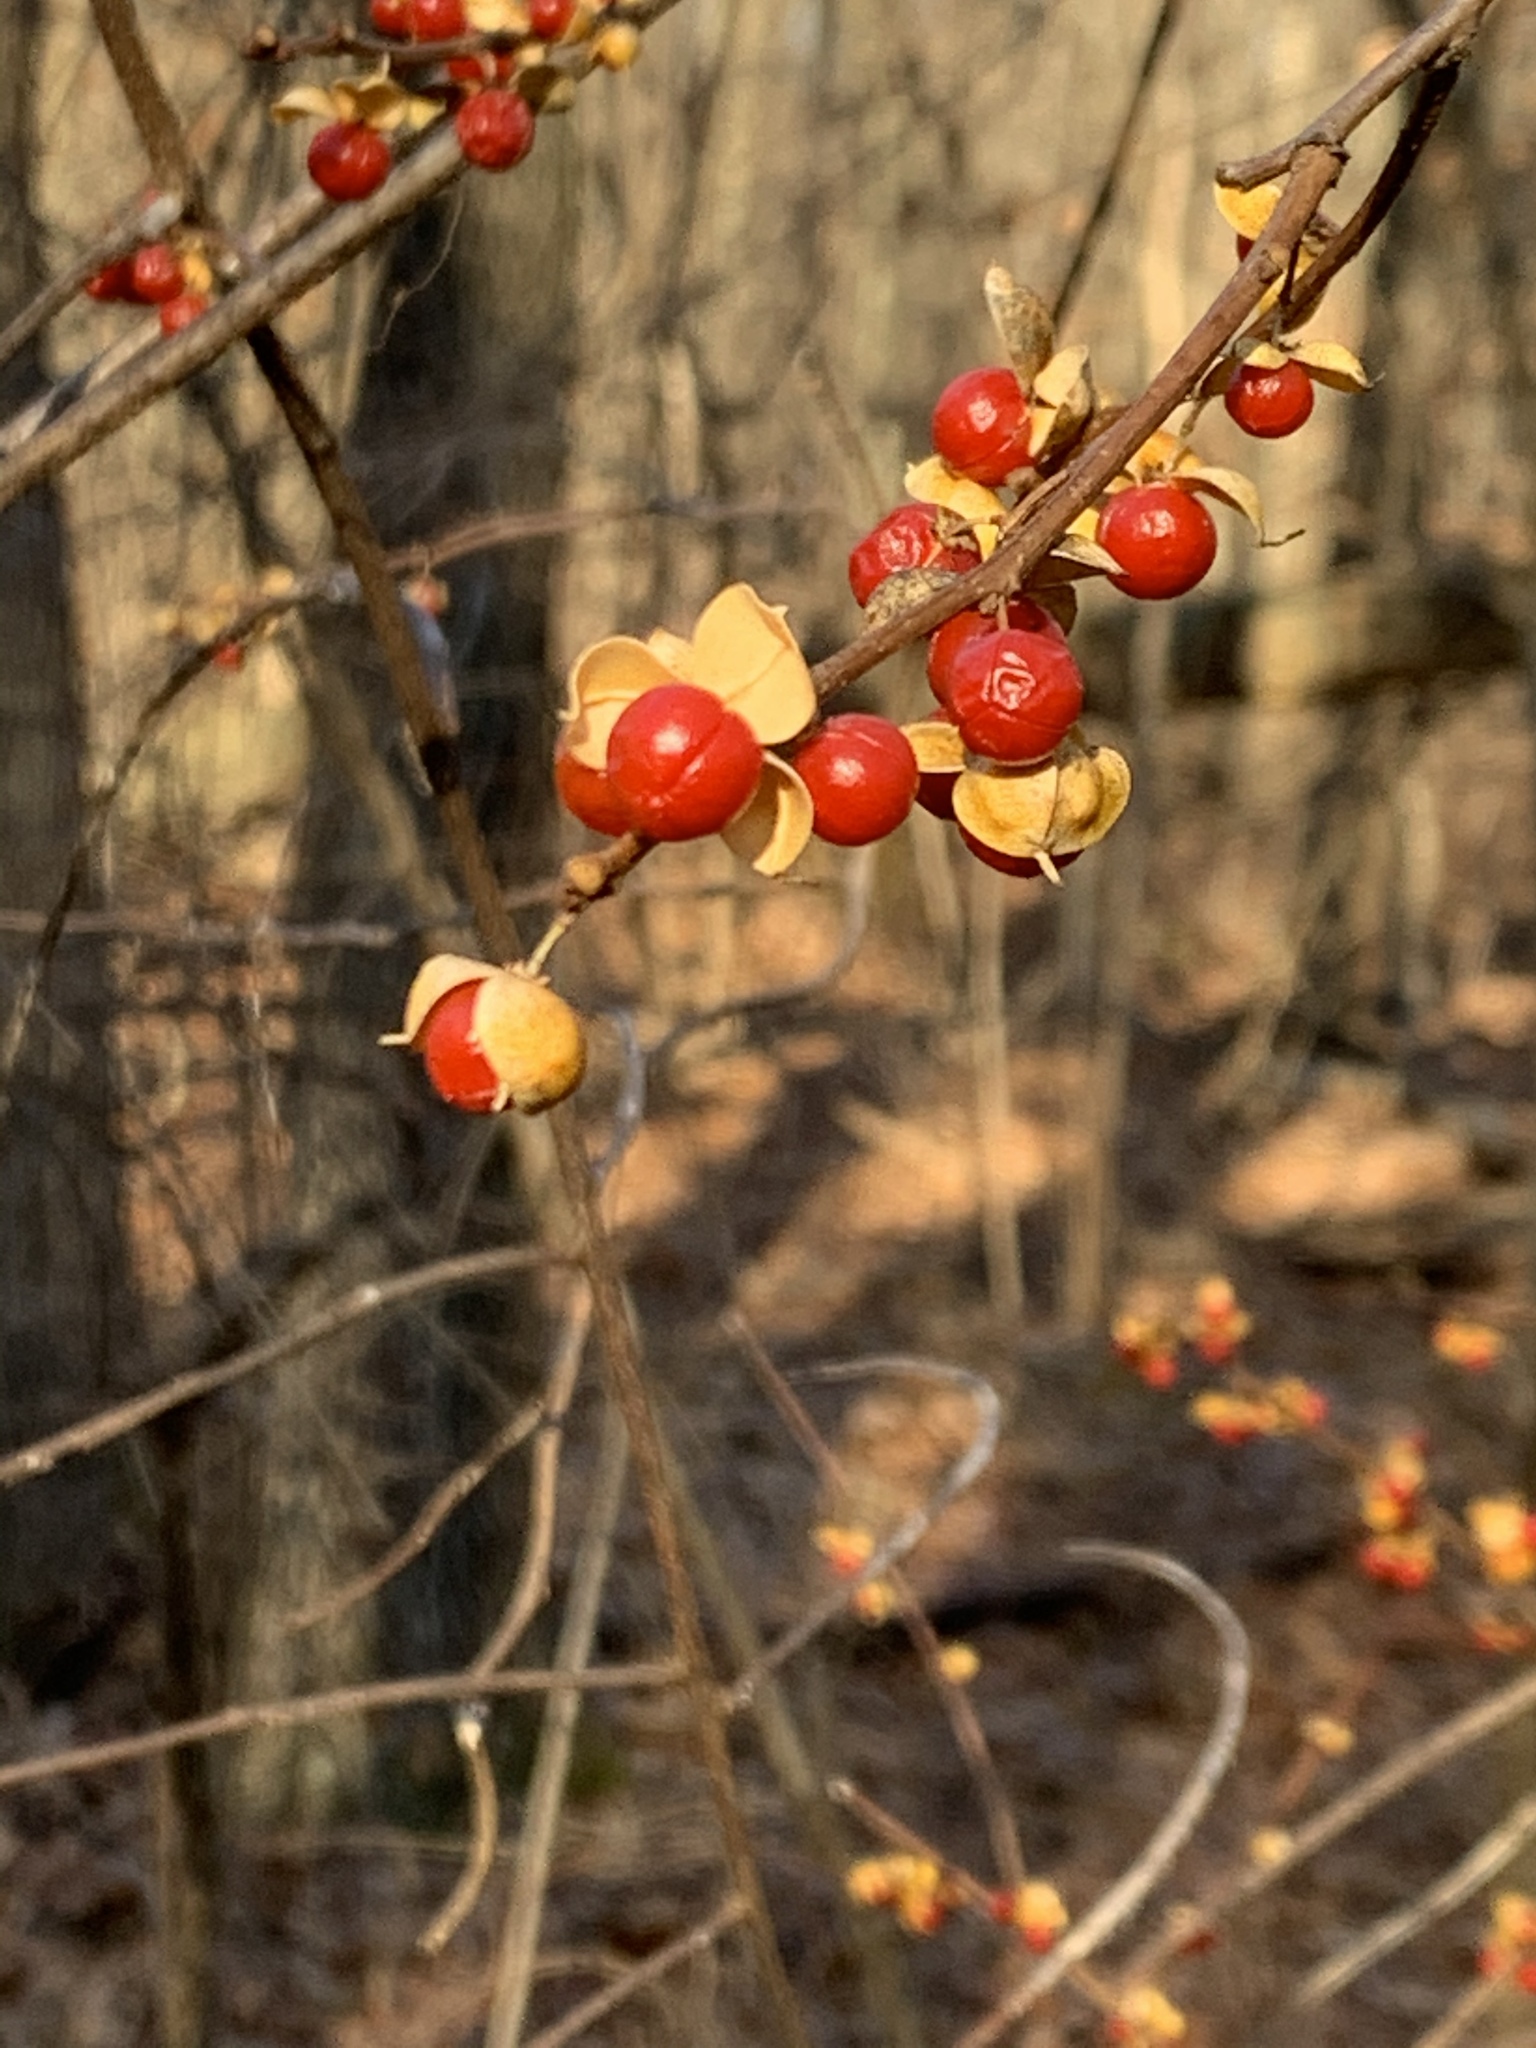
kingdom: Plantae
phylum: Tracheophyta
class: Magnoliopsida
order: Celastrales
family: Celastraceae
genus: Celastrus
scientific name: Celastrus orbiculatus
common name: Oriental bittersweet
